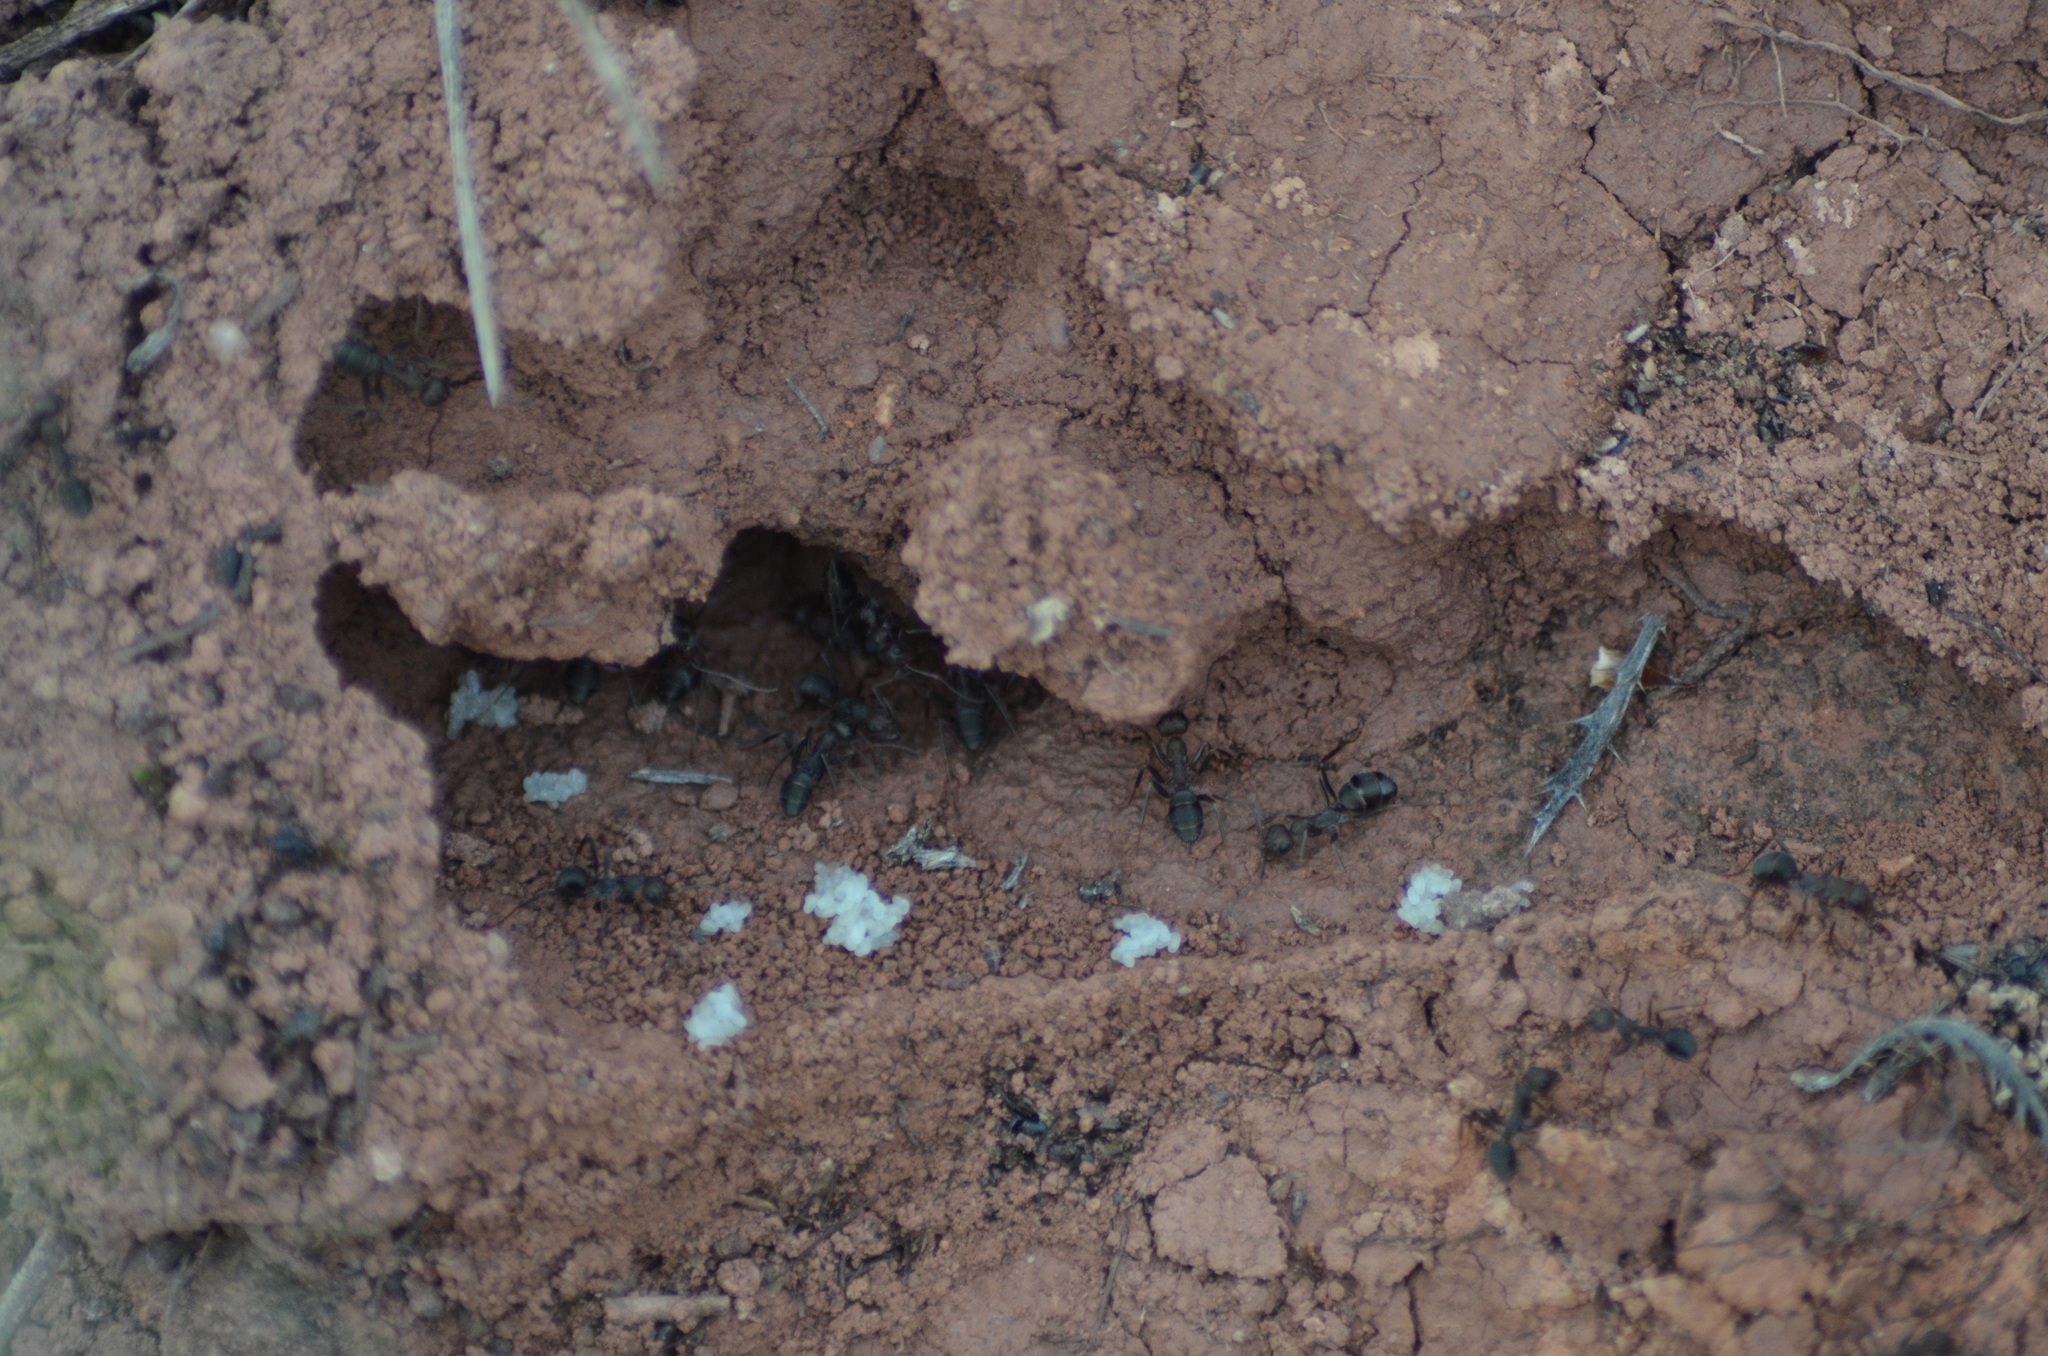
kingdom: Animalia
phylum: Arthropoda
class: Insecta
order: Hymenoptera
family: Formicidae
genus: Formica
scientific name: Formica subrufa
